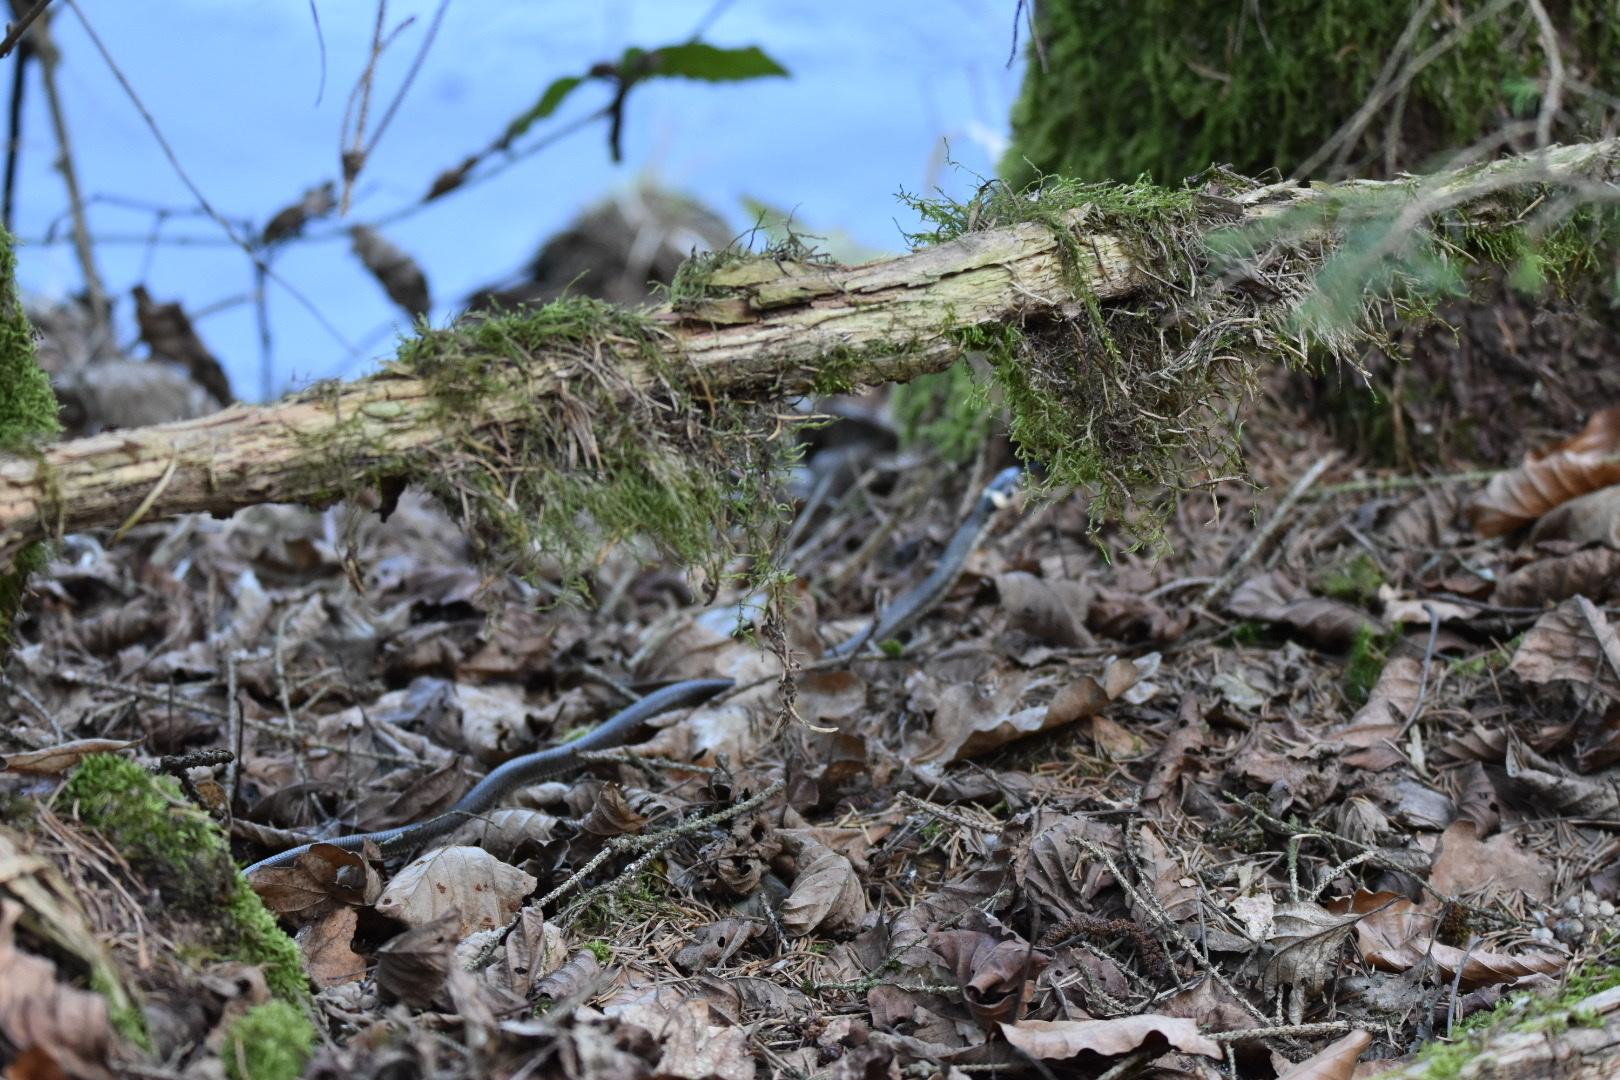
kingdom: Animalia
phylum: Chordata
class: Squamata
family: Colubridae
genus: Natrix
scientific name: Natrix natrix
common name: Grass snake
